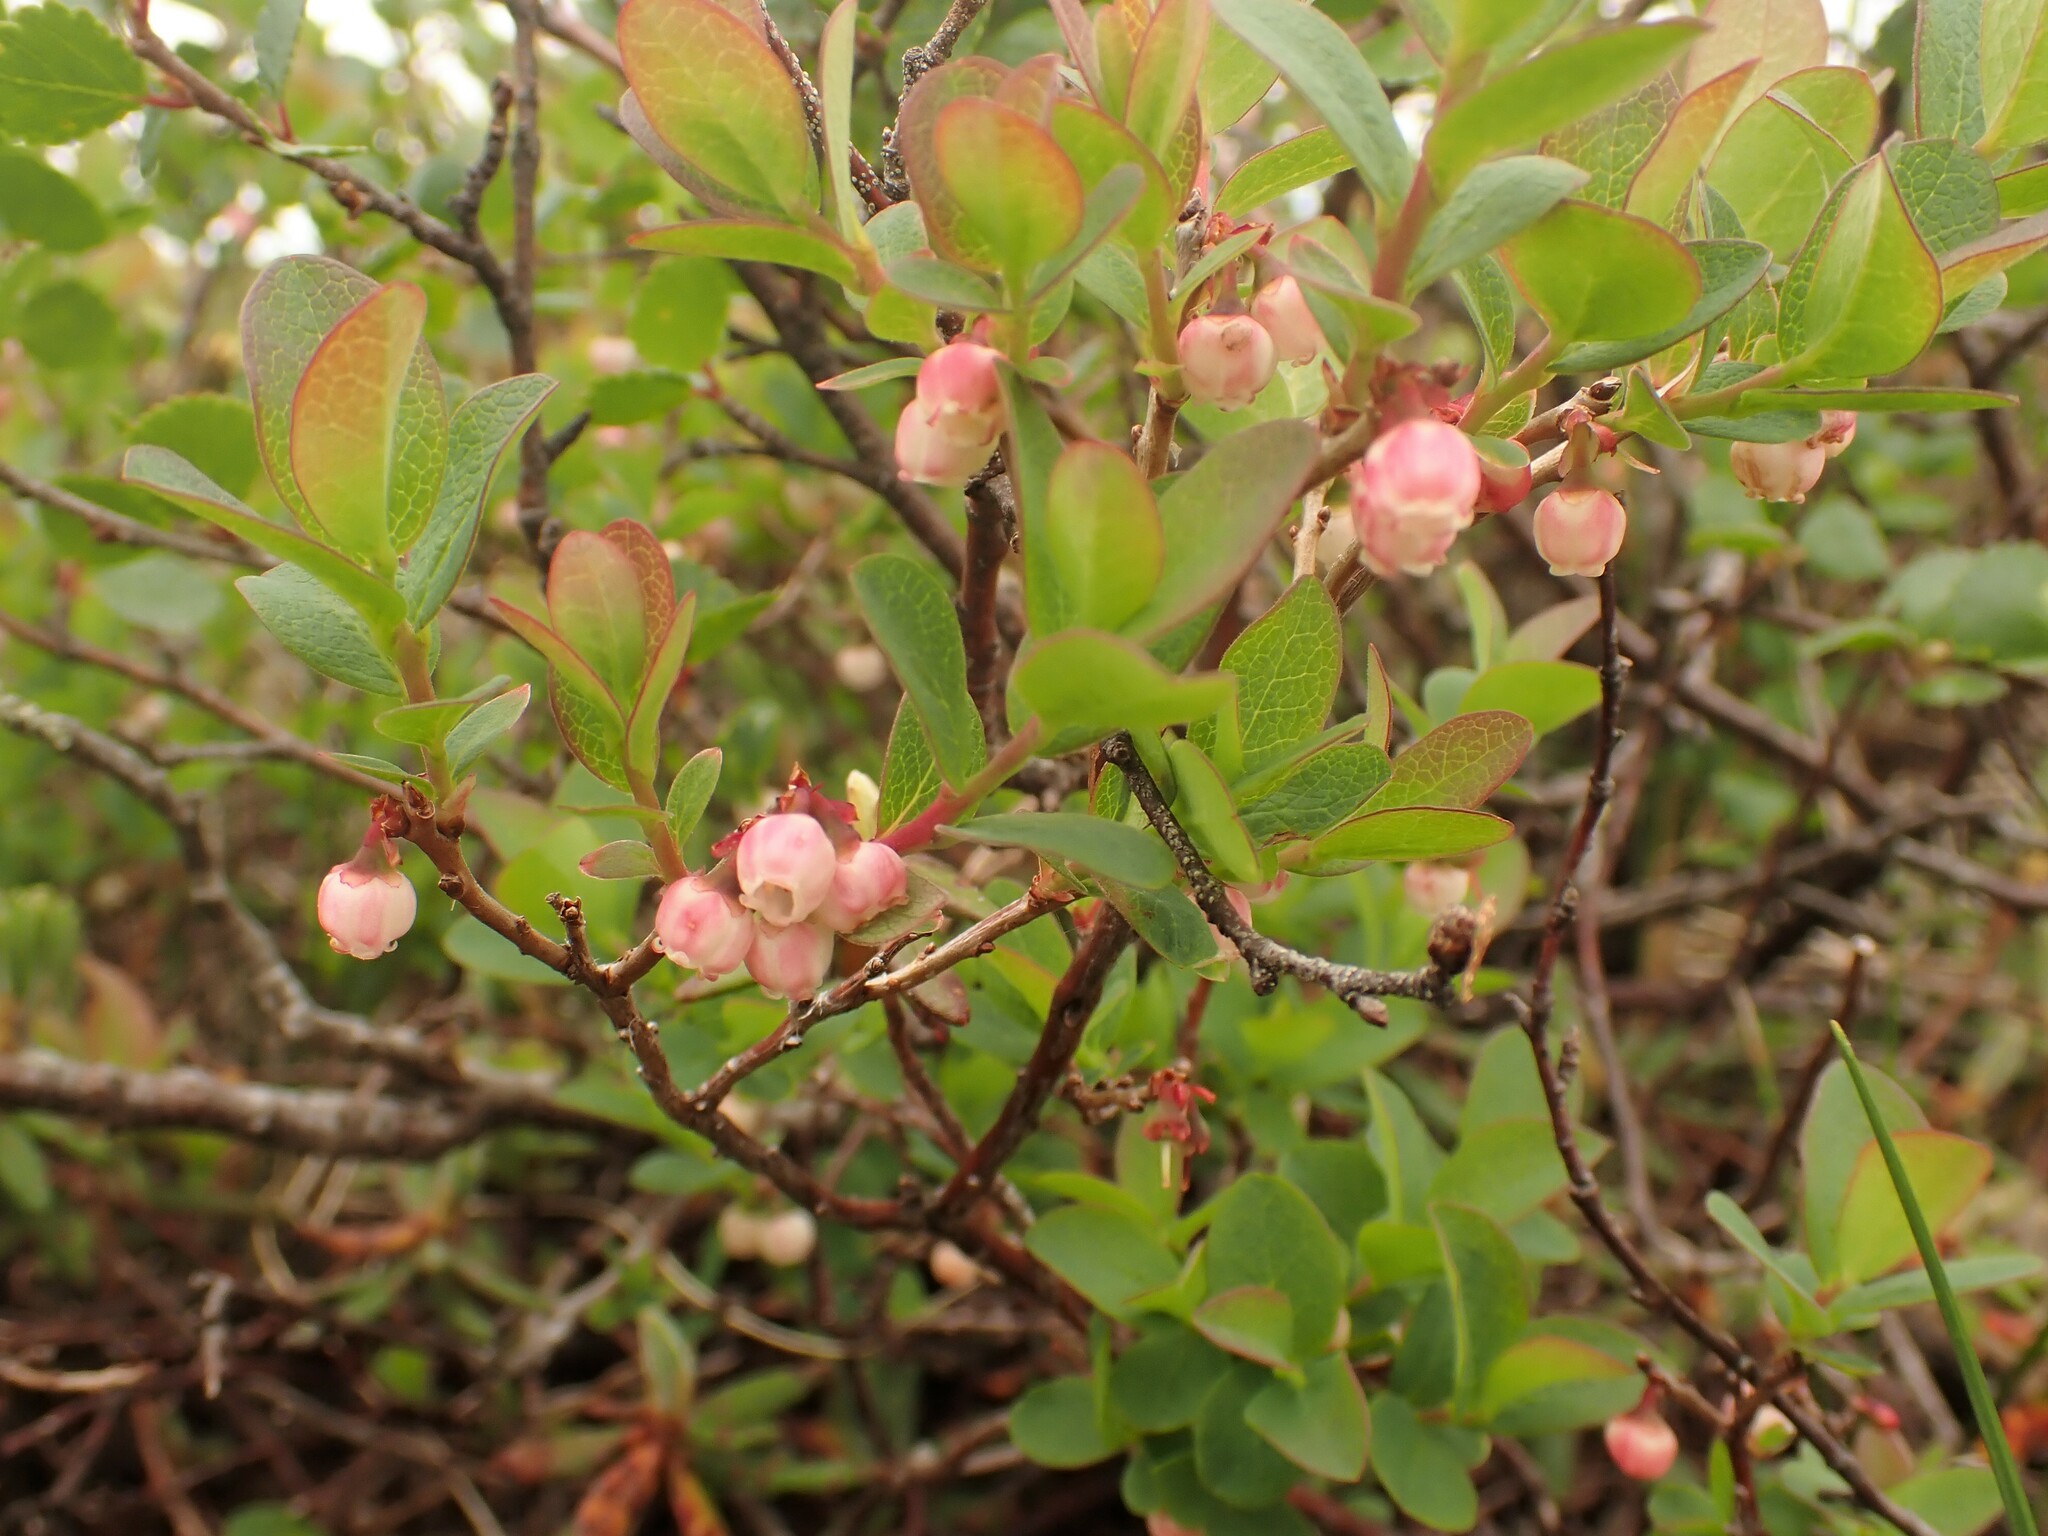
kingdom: Plantae
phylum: Tracheophyta
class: Magnoliopsida
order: Ericales
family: Ericaceae
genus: Vaccinium
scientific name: Vaccinium uliginosum
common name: Bog bilberry
